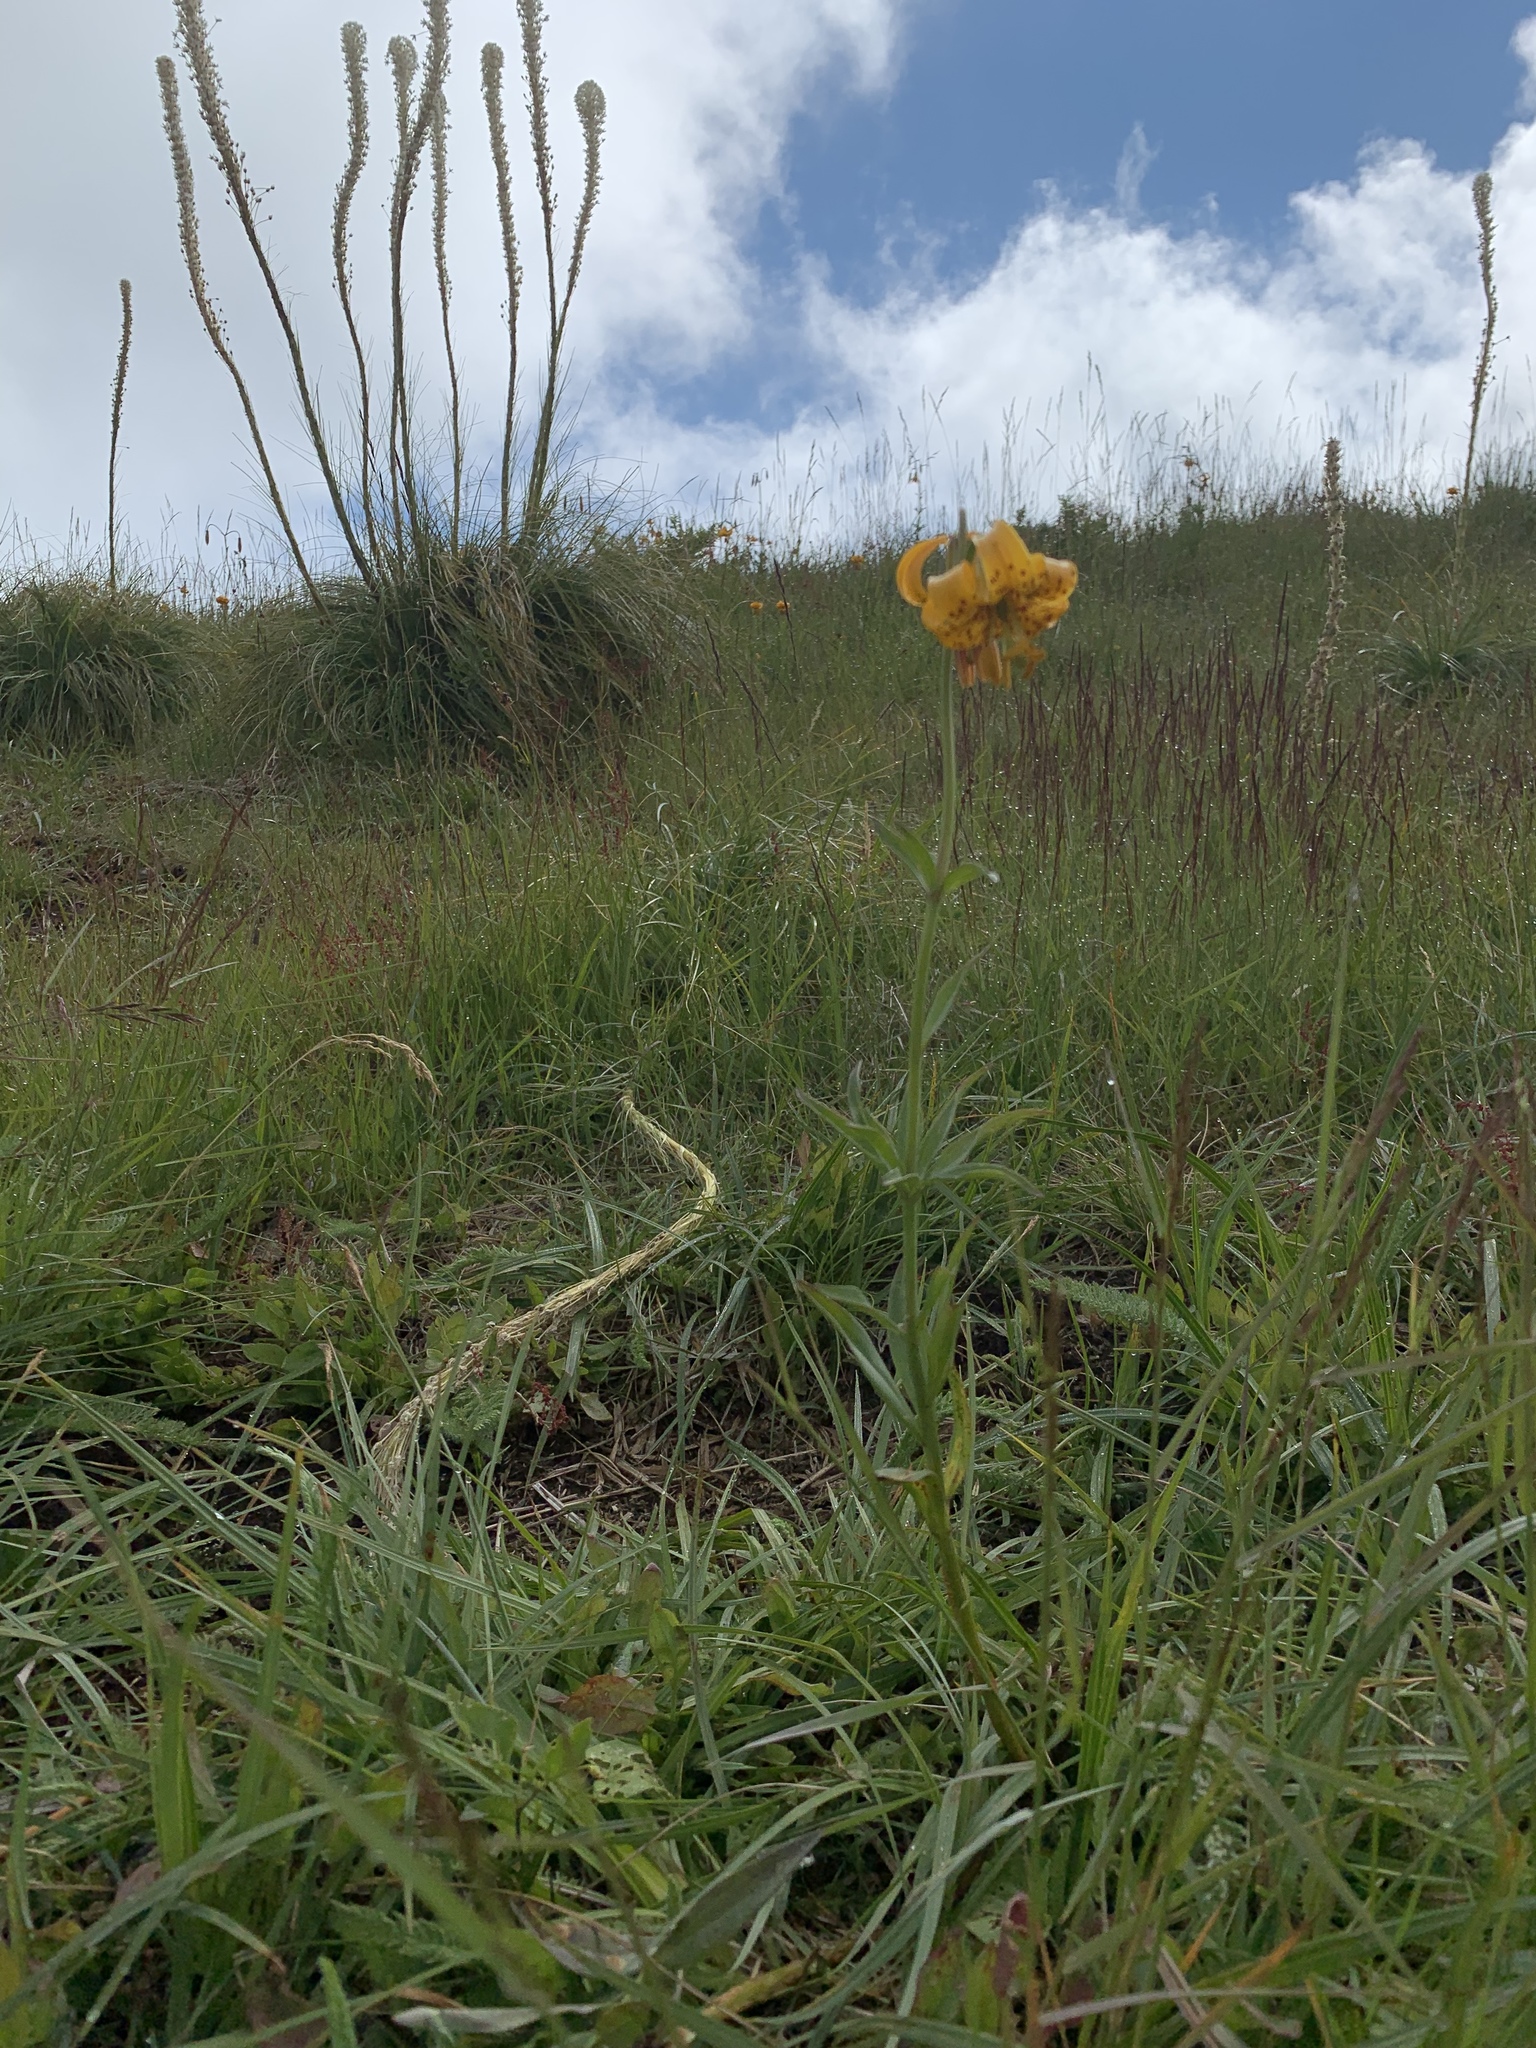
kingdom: Plantae
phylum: Tracheophyta
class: Liliopsida
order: Liliales
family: Liliaceae
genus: Lilium
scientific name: Lilium columbianum
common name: Columbia lily
